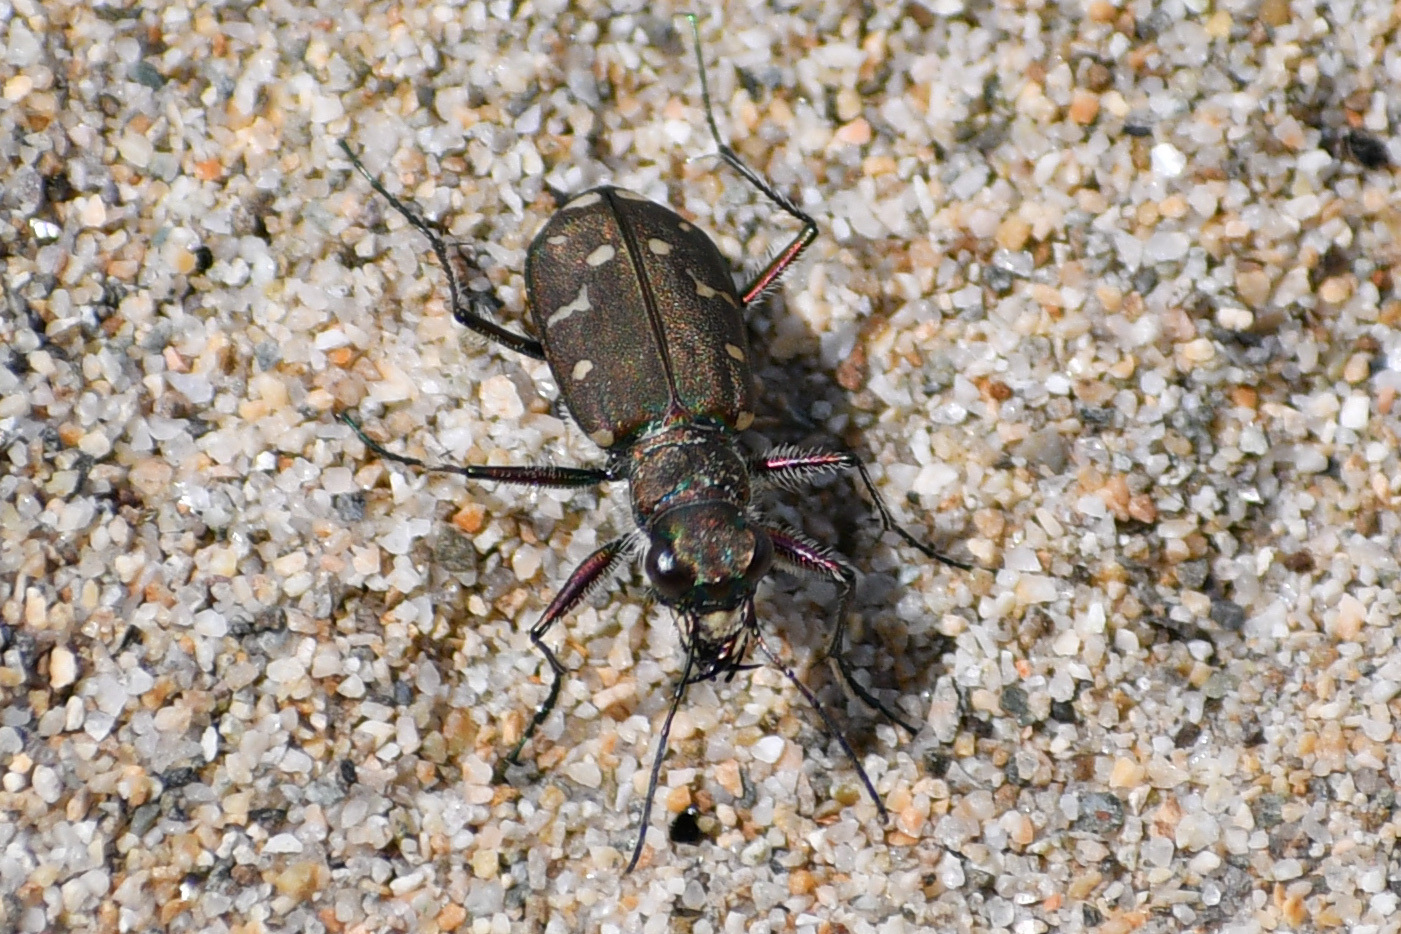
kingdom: Animalia
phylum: Arthropoda
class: Insecta
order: Coleoptera
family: Carabidae
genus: Cicindela
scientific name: Cicindela oregona
